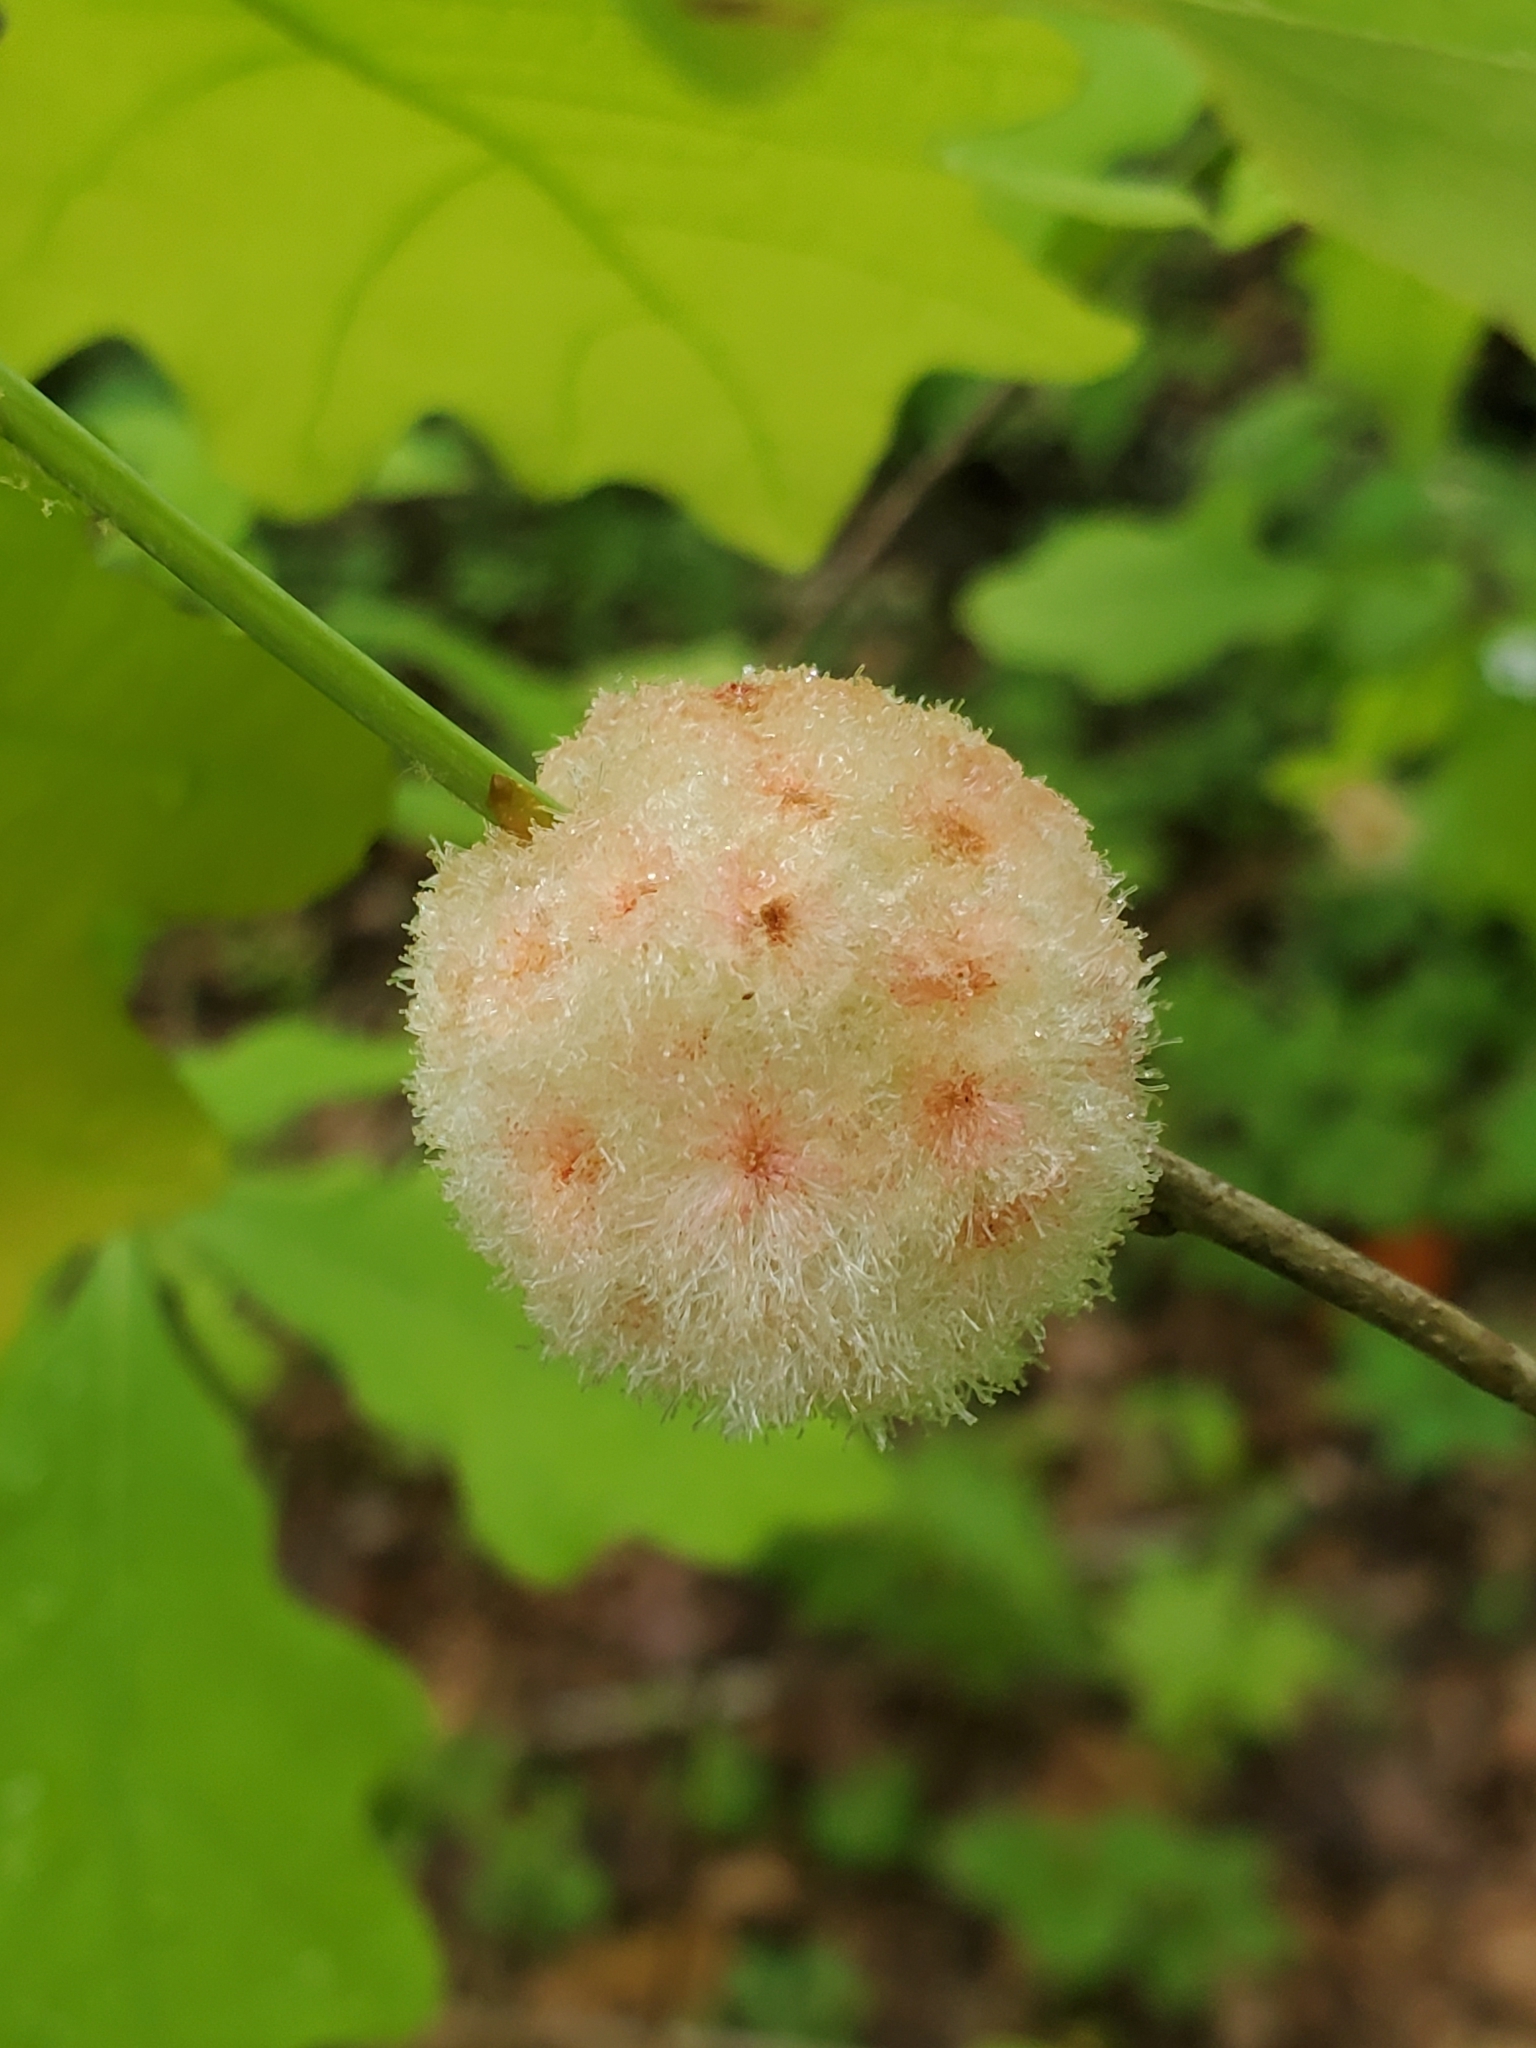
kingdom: Animalia
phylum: Arthropoda
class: Insecta
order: Hymenoptera
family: Cynipidae
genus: Callirhytis
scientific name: Callirhytis
